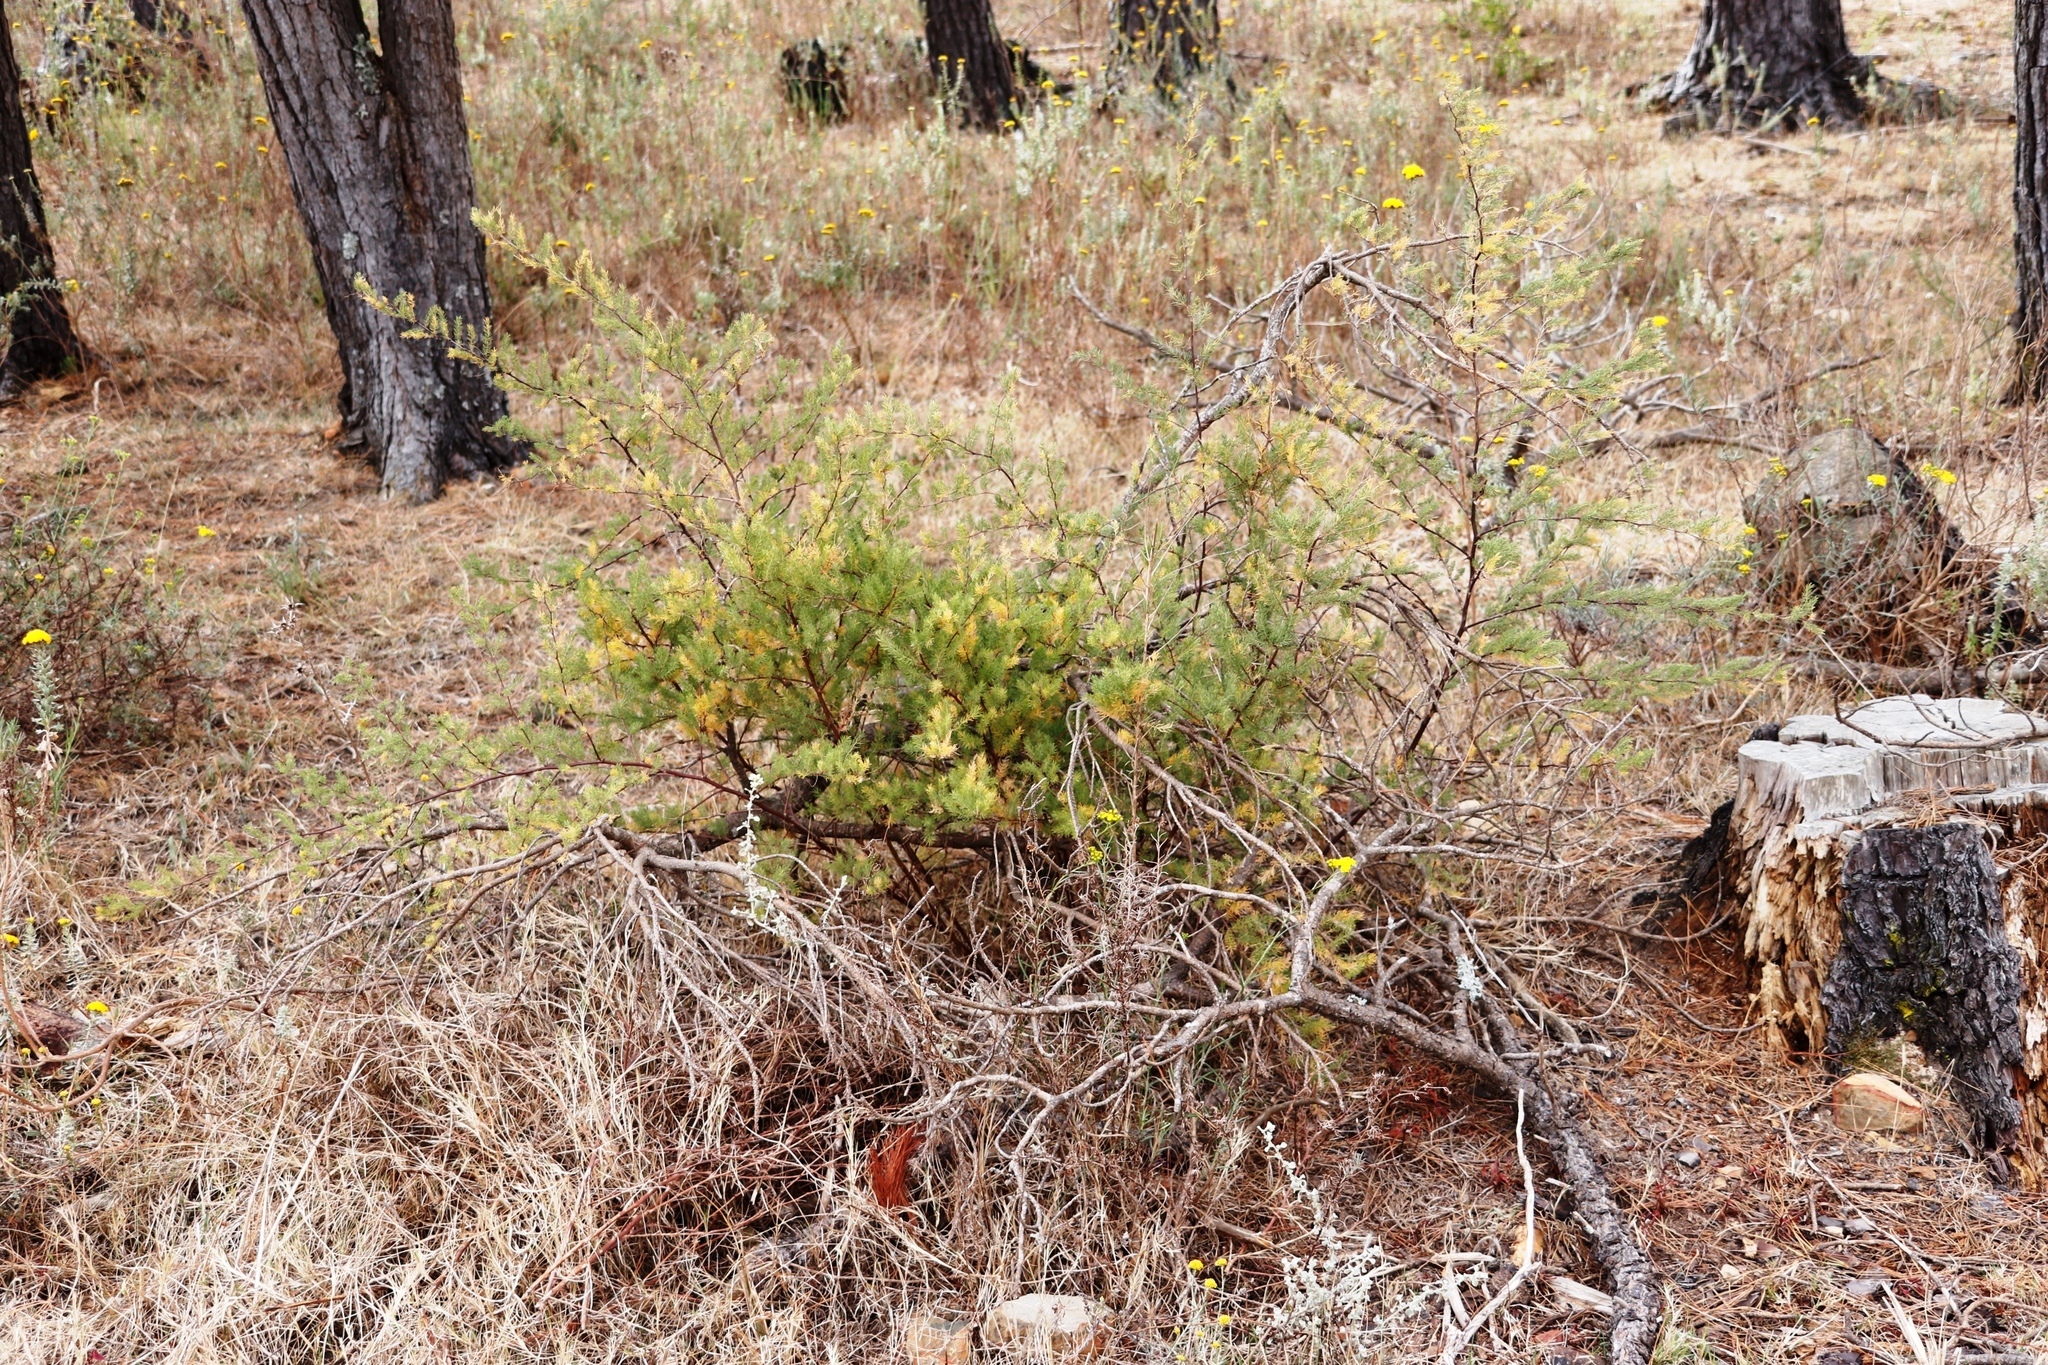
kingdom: Plantae
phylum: Tracheophyta
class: Liliopsida
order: Asparagales
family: Asparagaceae
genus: Asparagus
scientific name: Asparagus rubicundus
